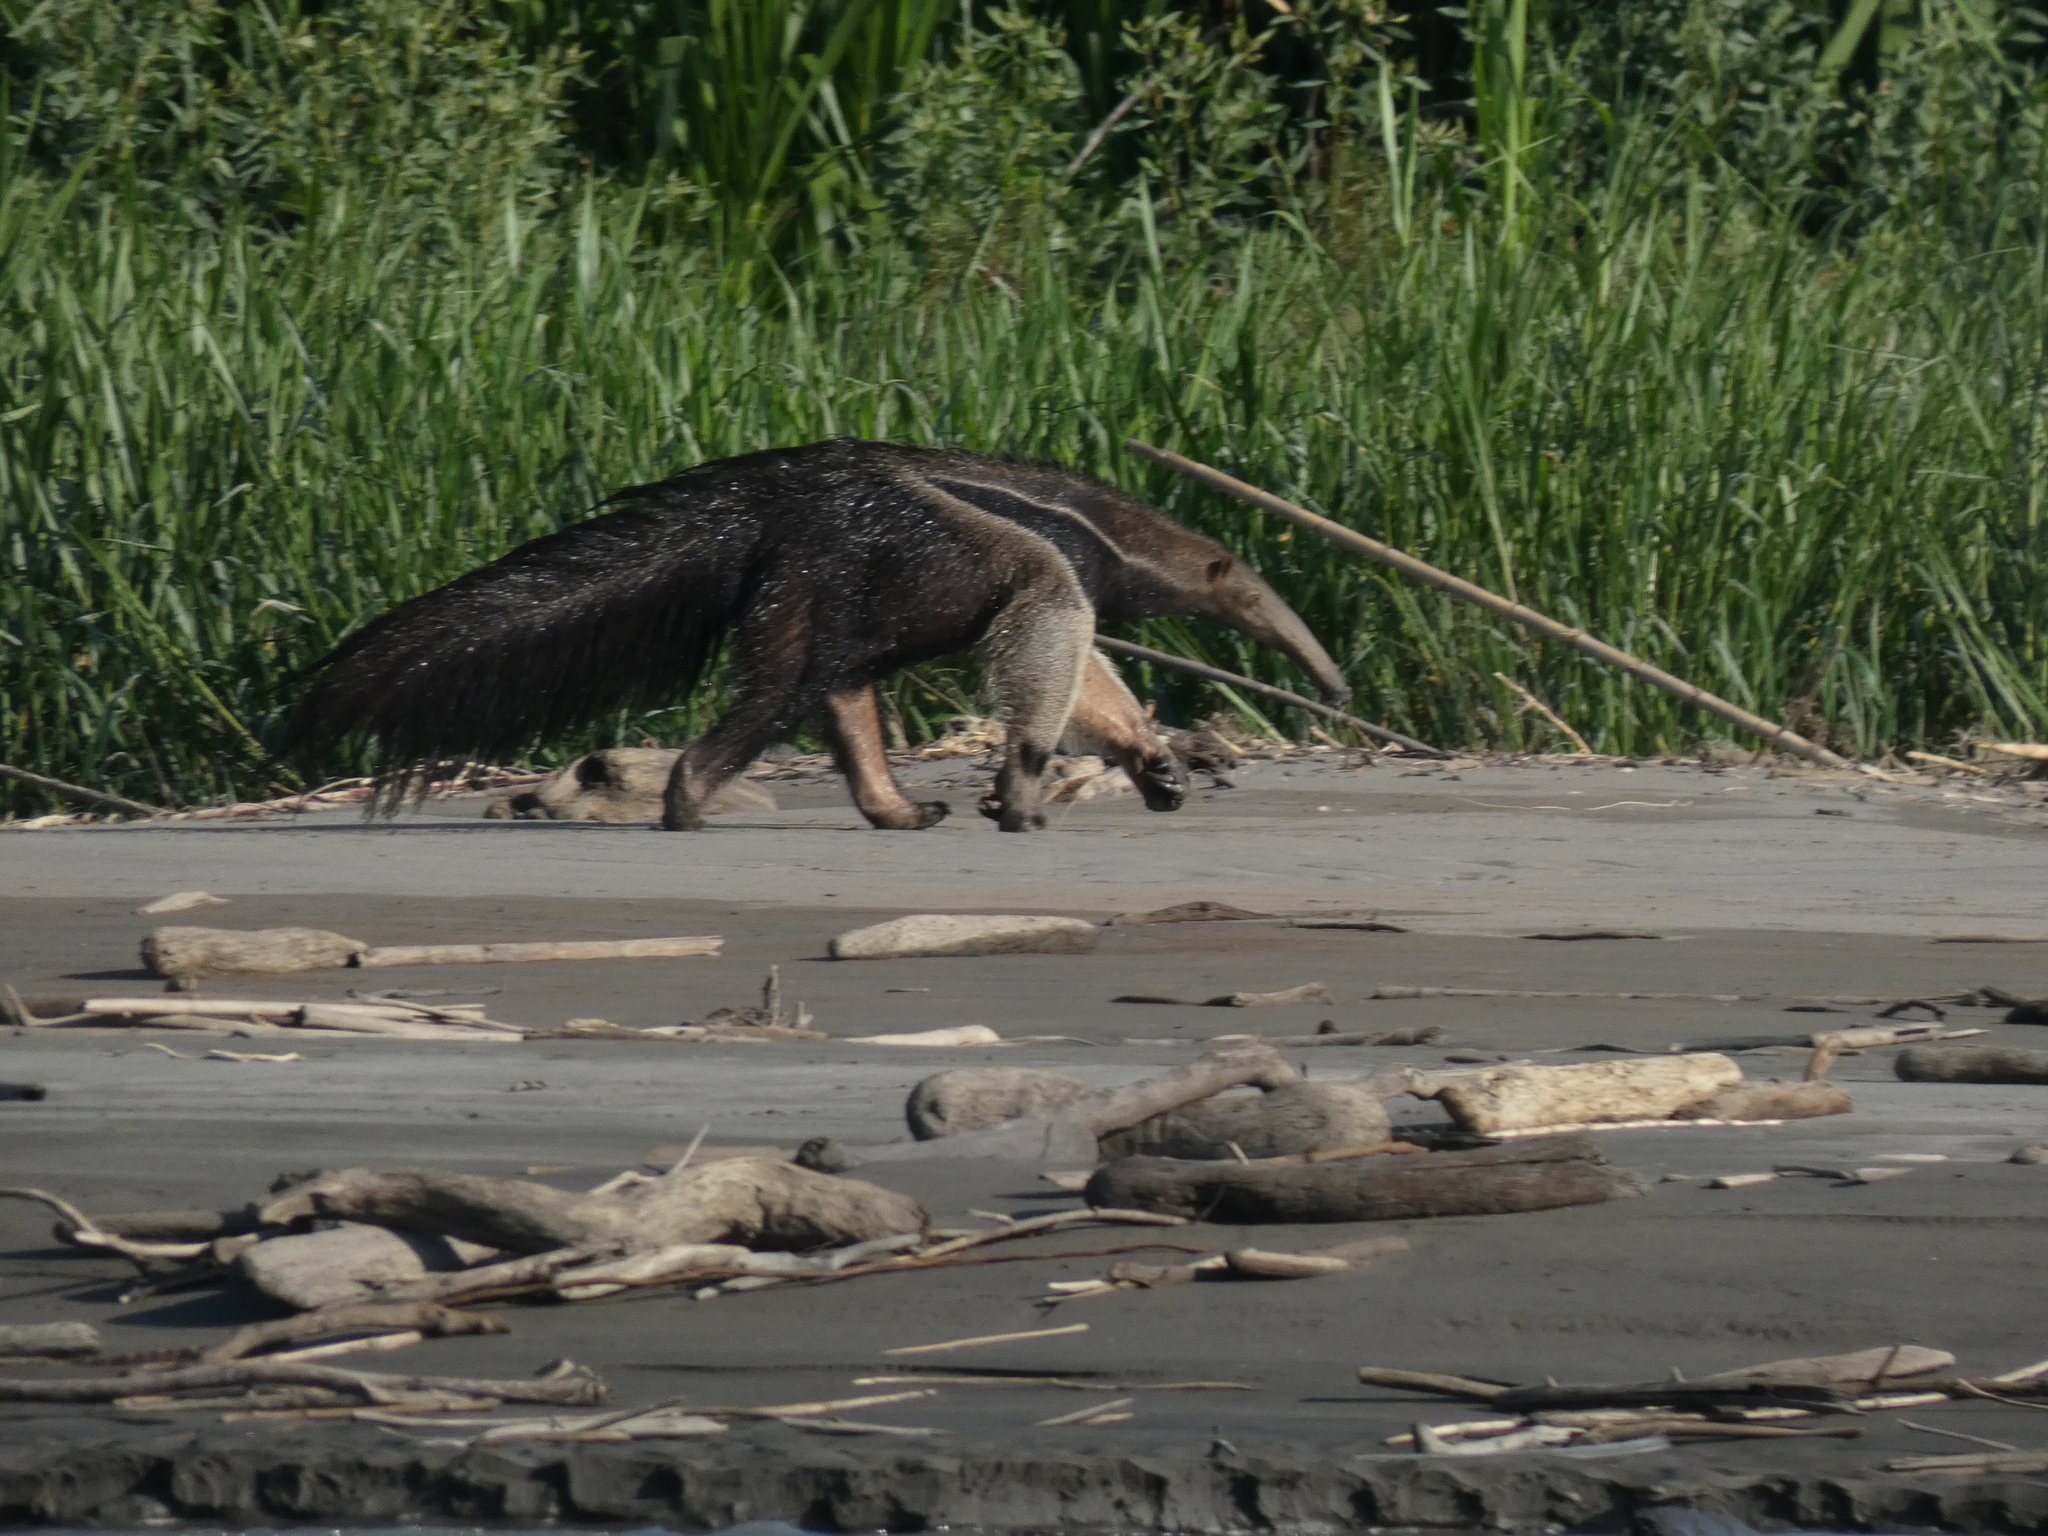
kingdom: Animalia
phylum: Chordata
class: Mammalia
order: Pilosa
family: Myrmecophagidae
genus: Myrmecophaga
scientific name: Myrmecophaga tridactyla
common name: Giant anteater
